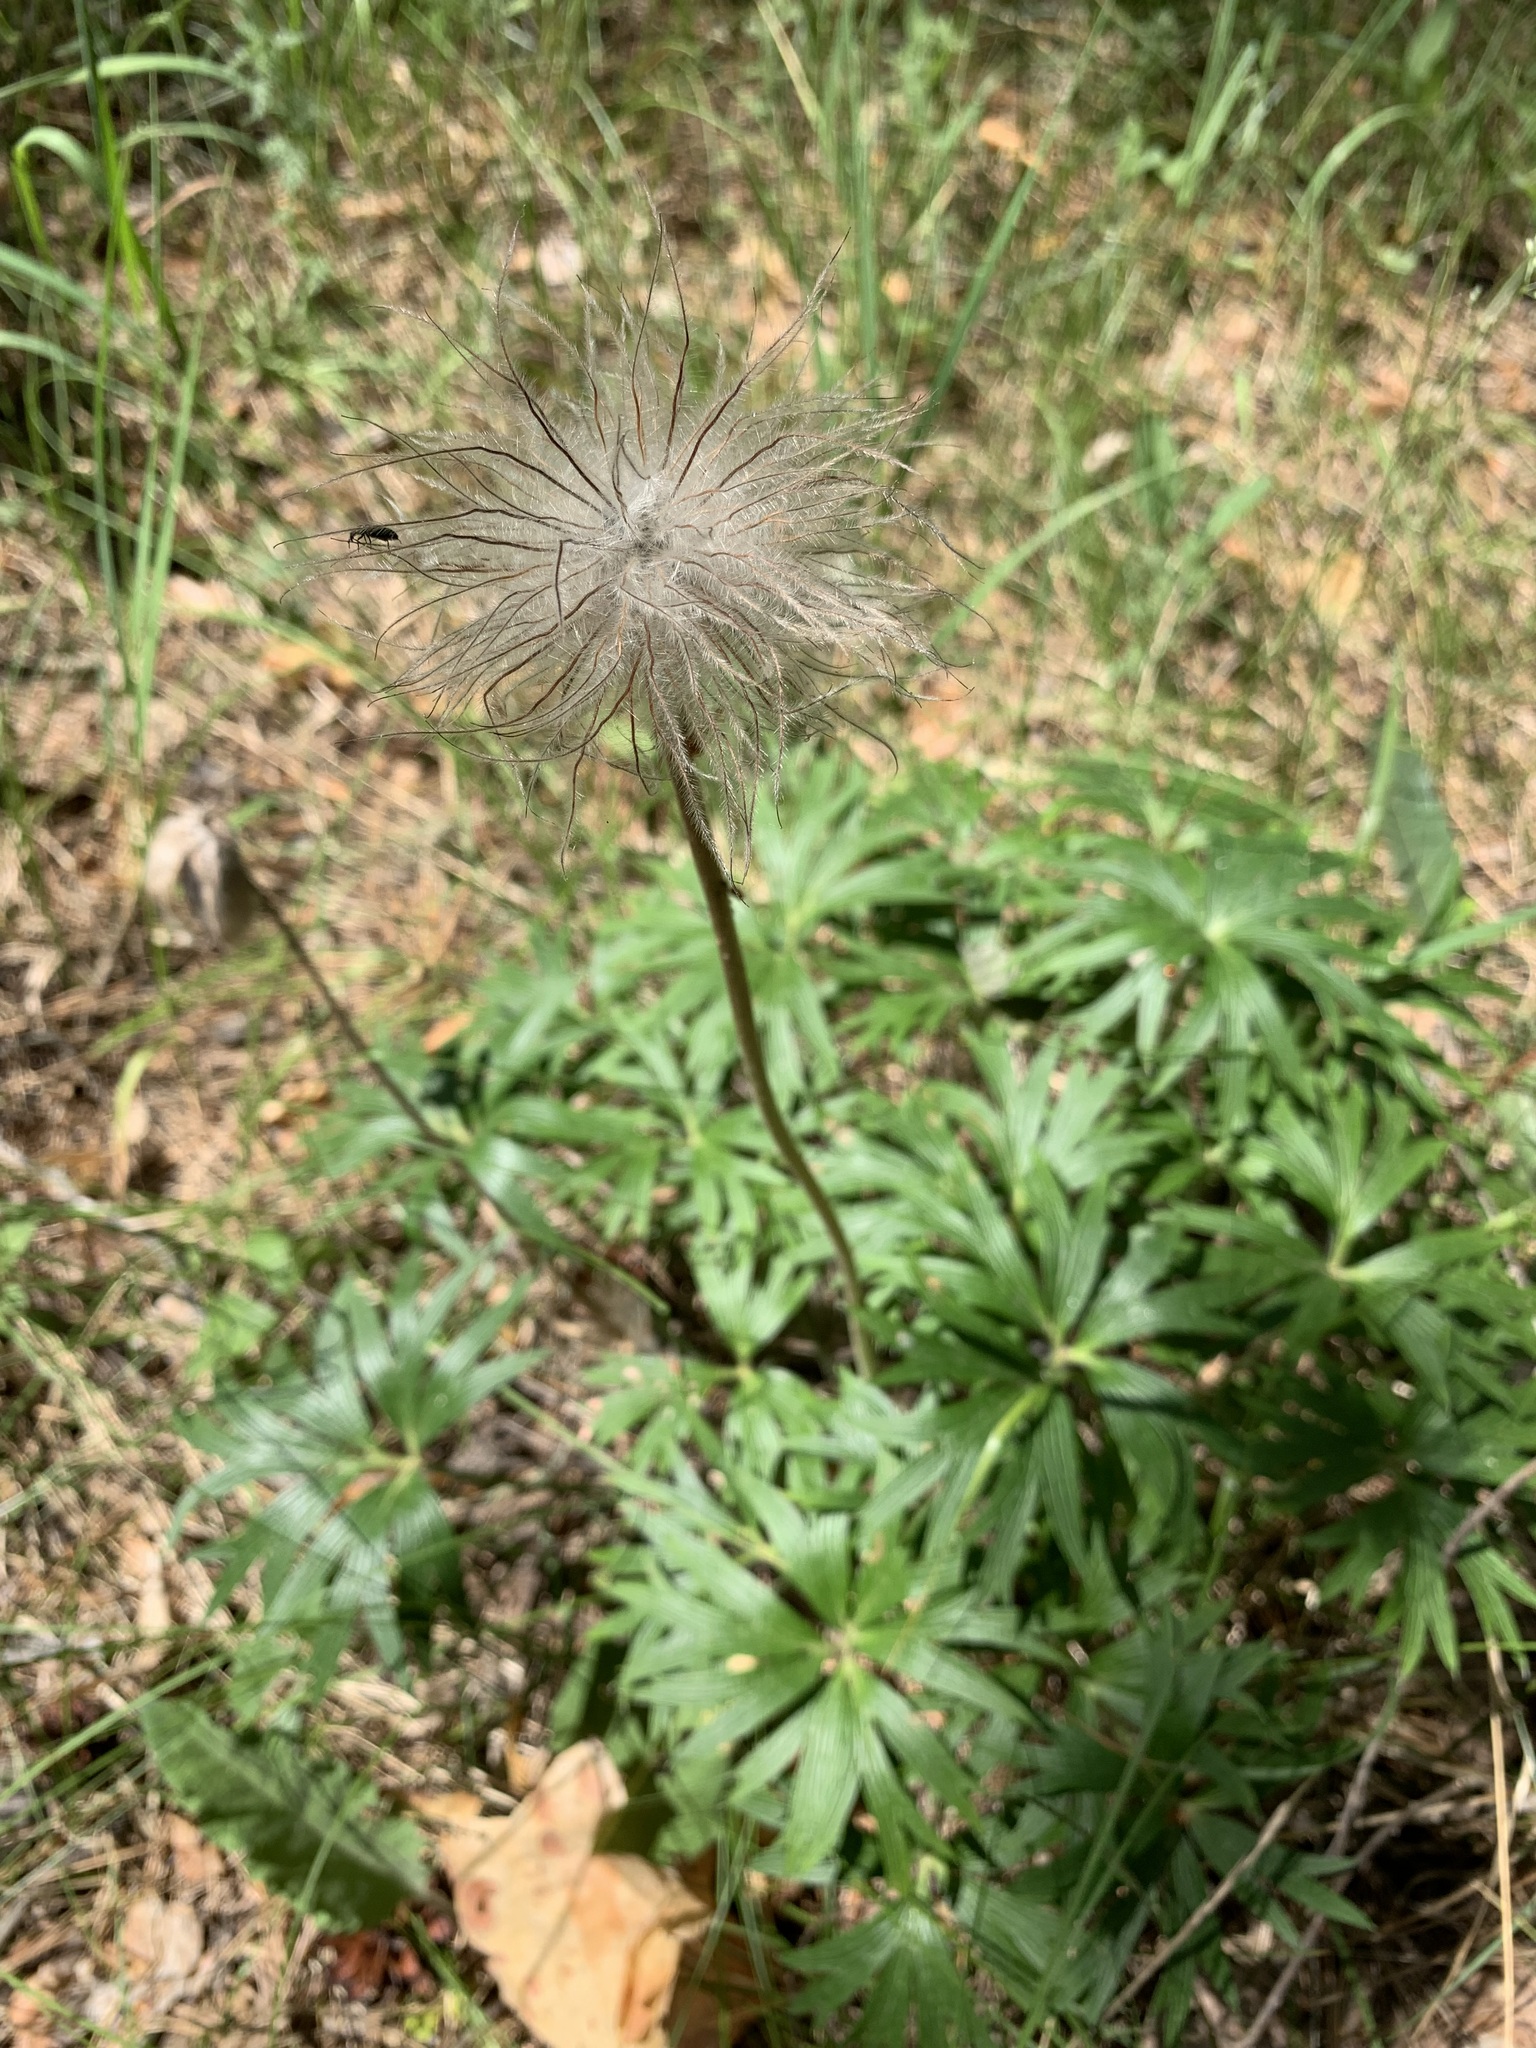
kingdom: Plantae
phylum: Tracheophyta
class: Magnoliopsida
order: Ranunculales
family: Ranunculaceae
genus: Pulsatilla
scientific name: Pulsatilla patens
